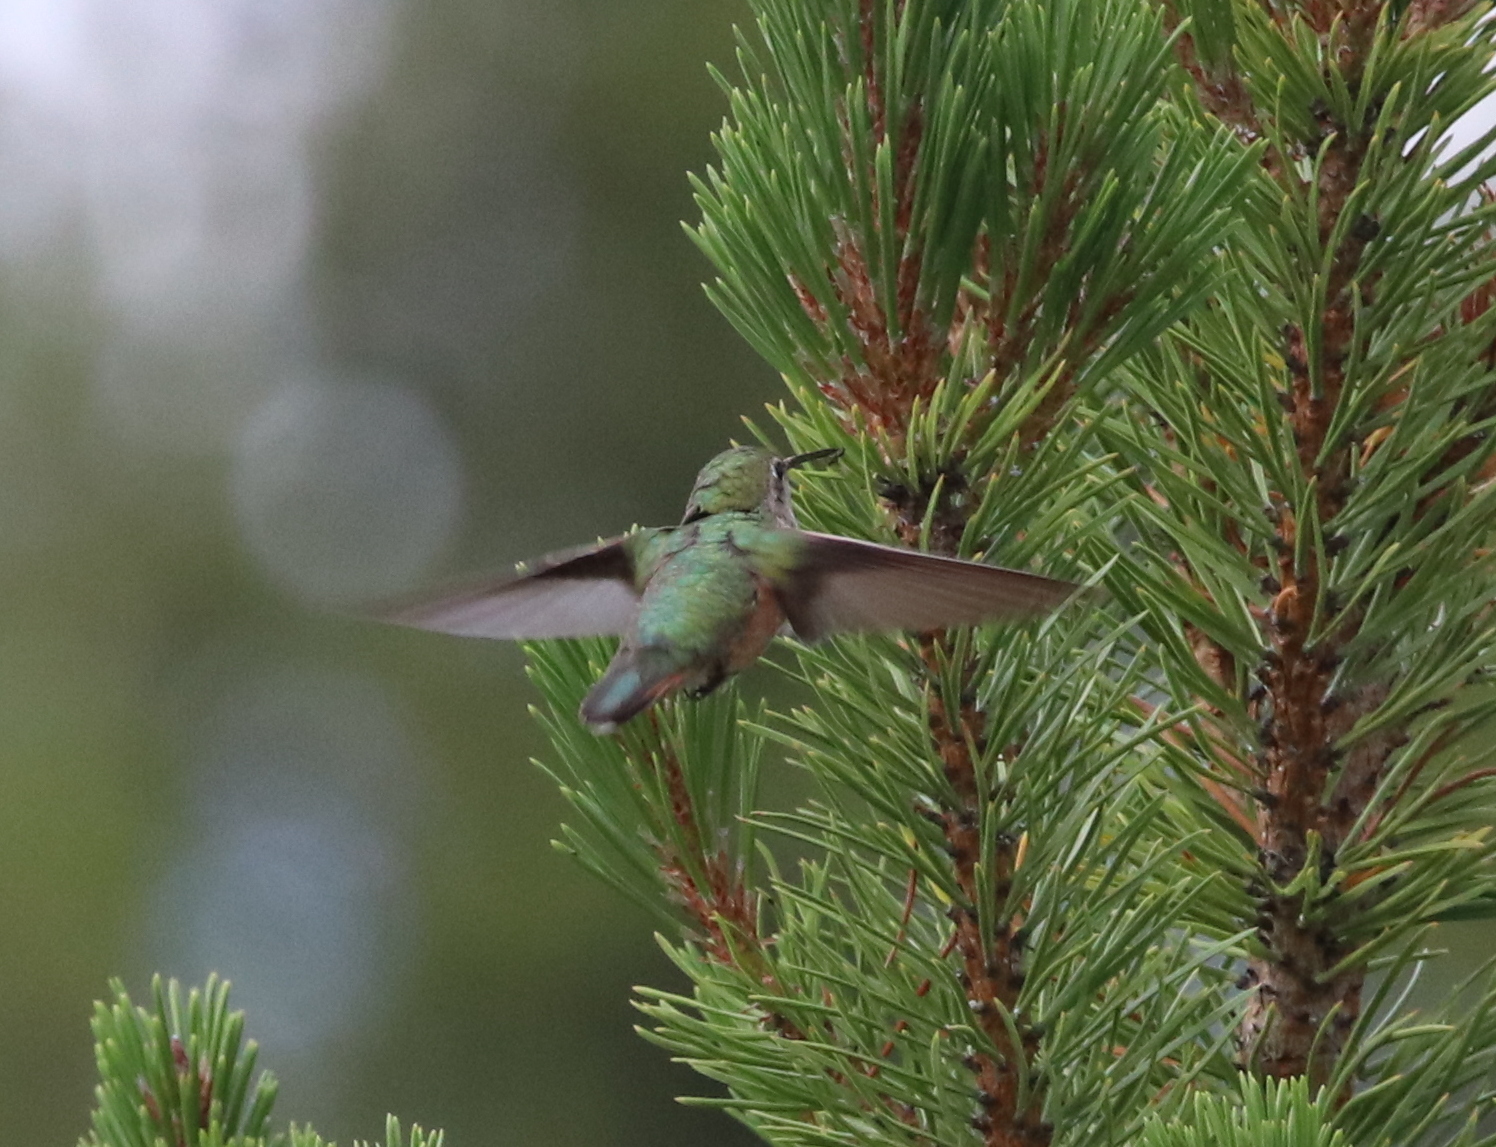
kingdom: Animalia
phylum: Chordata
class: Aves
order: Apodiformes
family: Trochilidae
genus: Selasphorus
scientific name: Selasphorus platycercus
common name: Broad-tailed hummingbird
